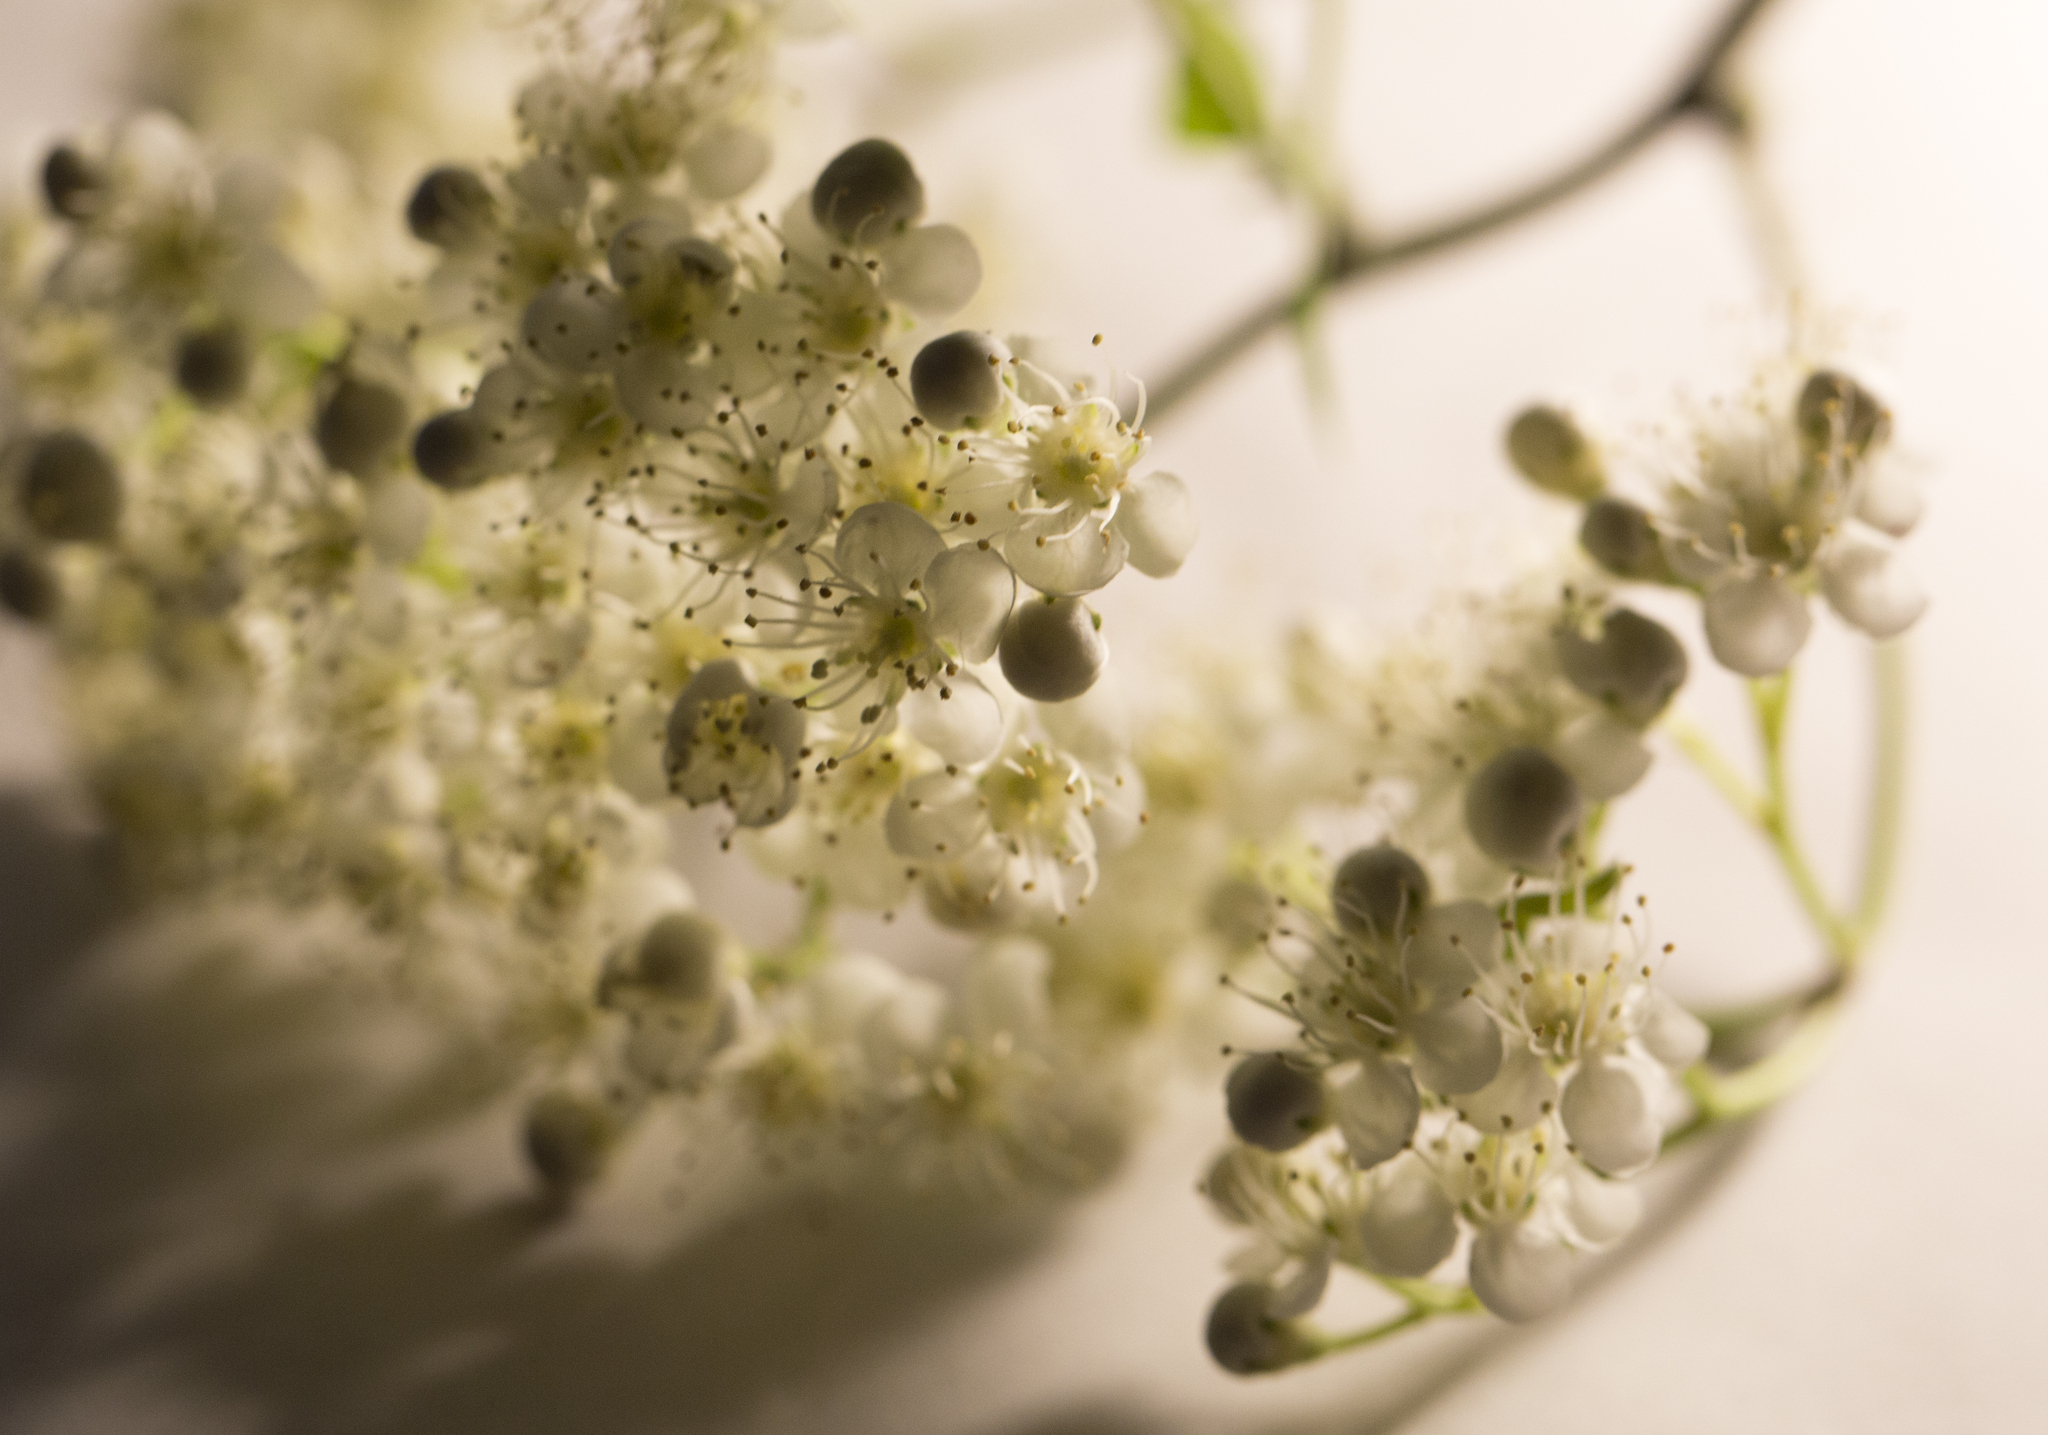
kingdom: Plantae
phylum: Tracheophyta
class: Magnoliopsida
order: Rosales
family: Rosaceae
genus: Sorbus
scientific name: Sorbus aucuparia
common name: Rowan
